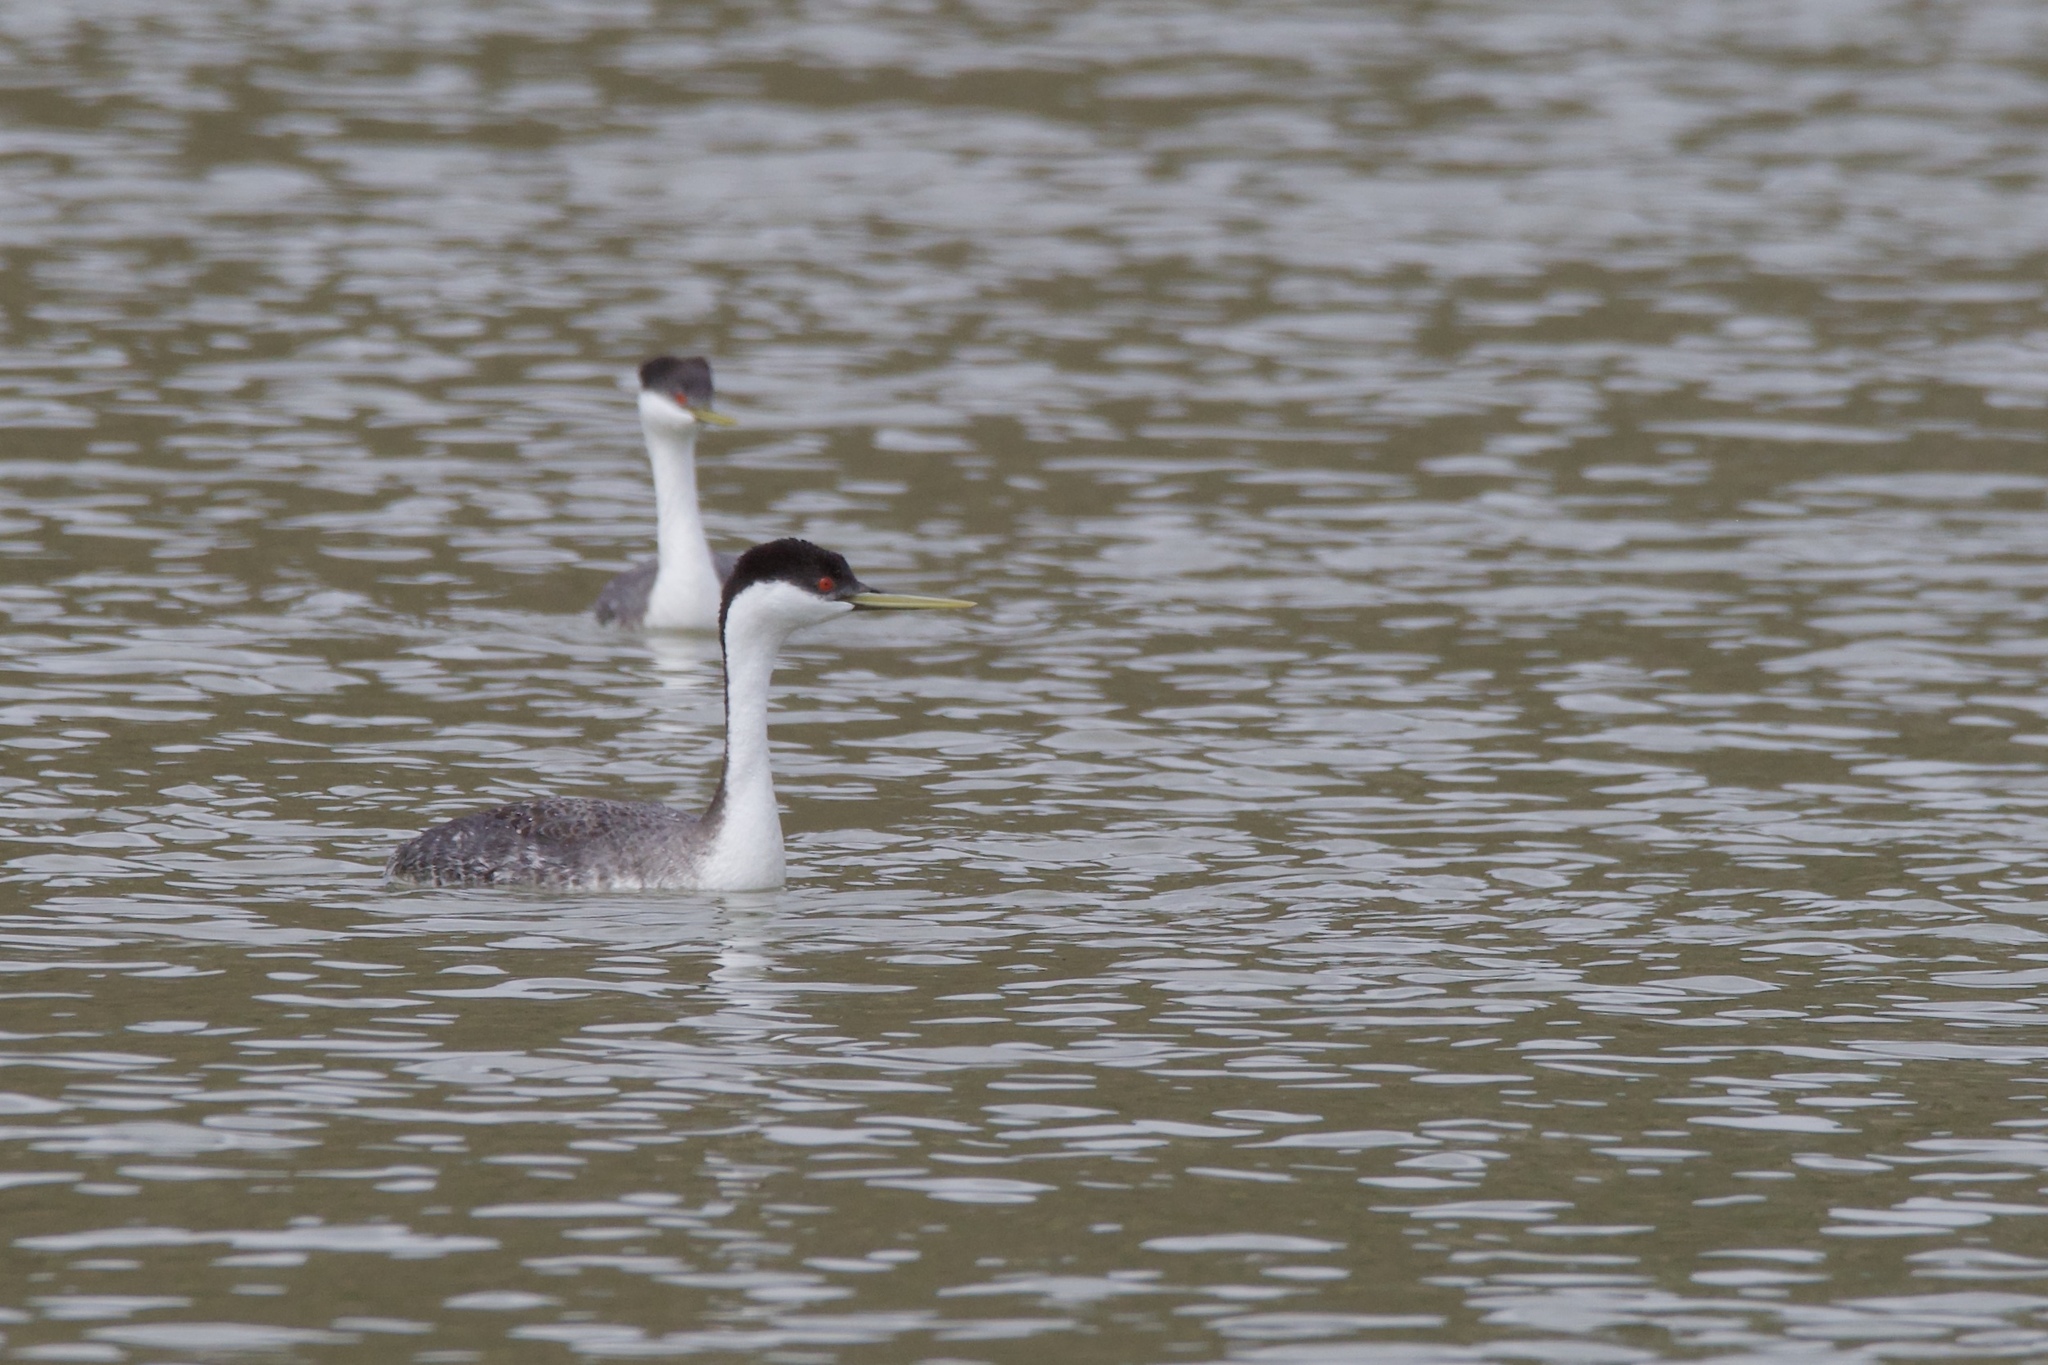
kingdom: Animalia
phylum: Chordata
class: Aves
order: Podicipediformes
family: Podicipedidae
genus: Aechmophorus
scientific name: Aechmophorus occidentalis
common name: Western grebe
